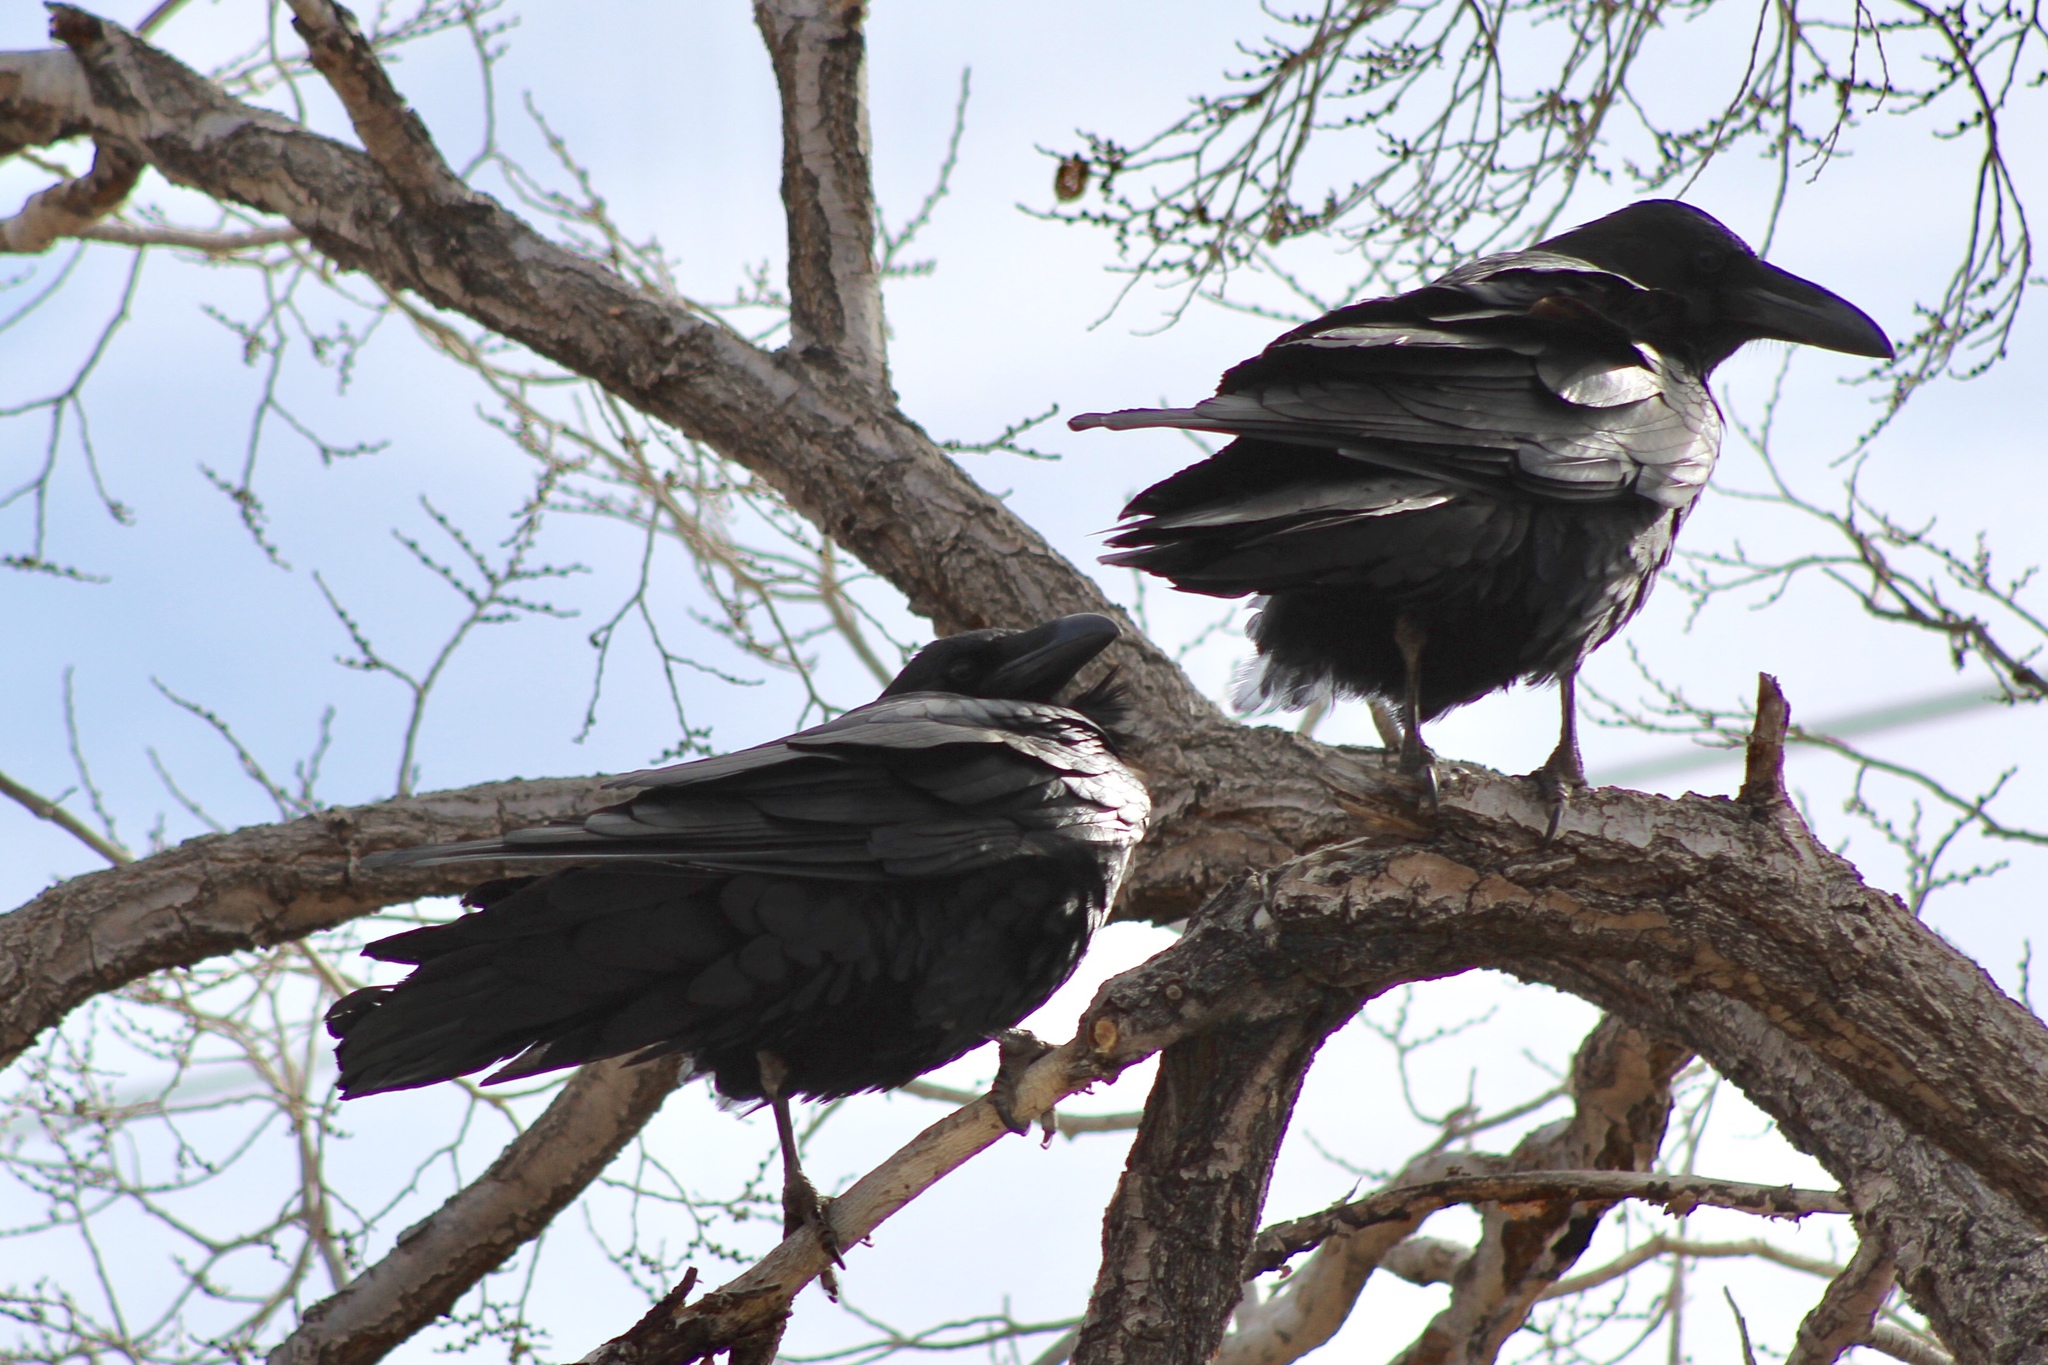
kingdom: Animalia
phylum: Chordata
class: Aves
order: Passeriformes
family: Corvidae
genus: Corvus
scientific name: Corvus corax
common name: Common raven
